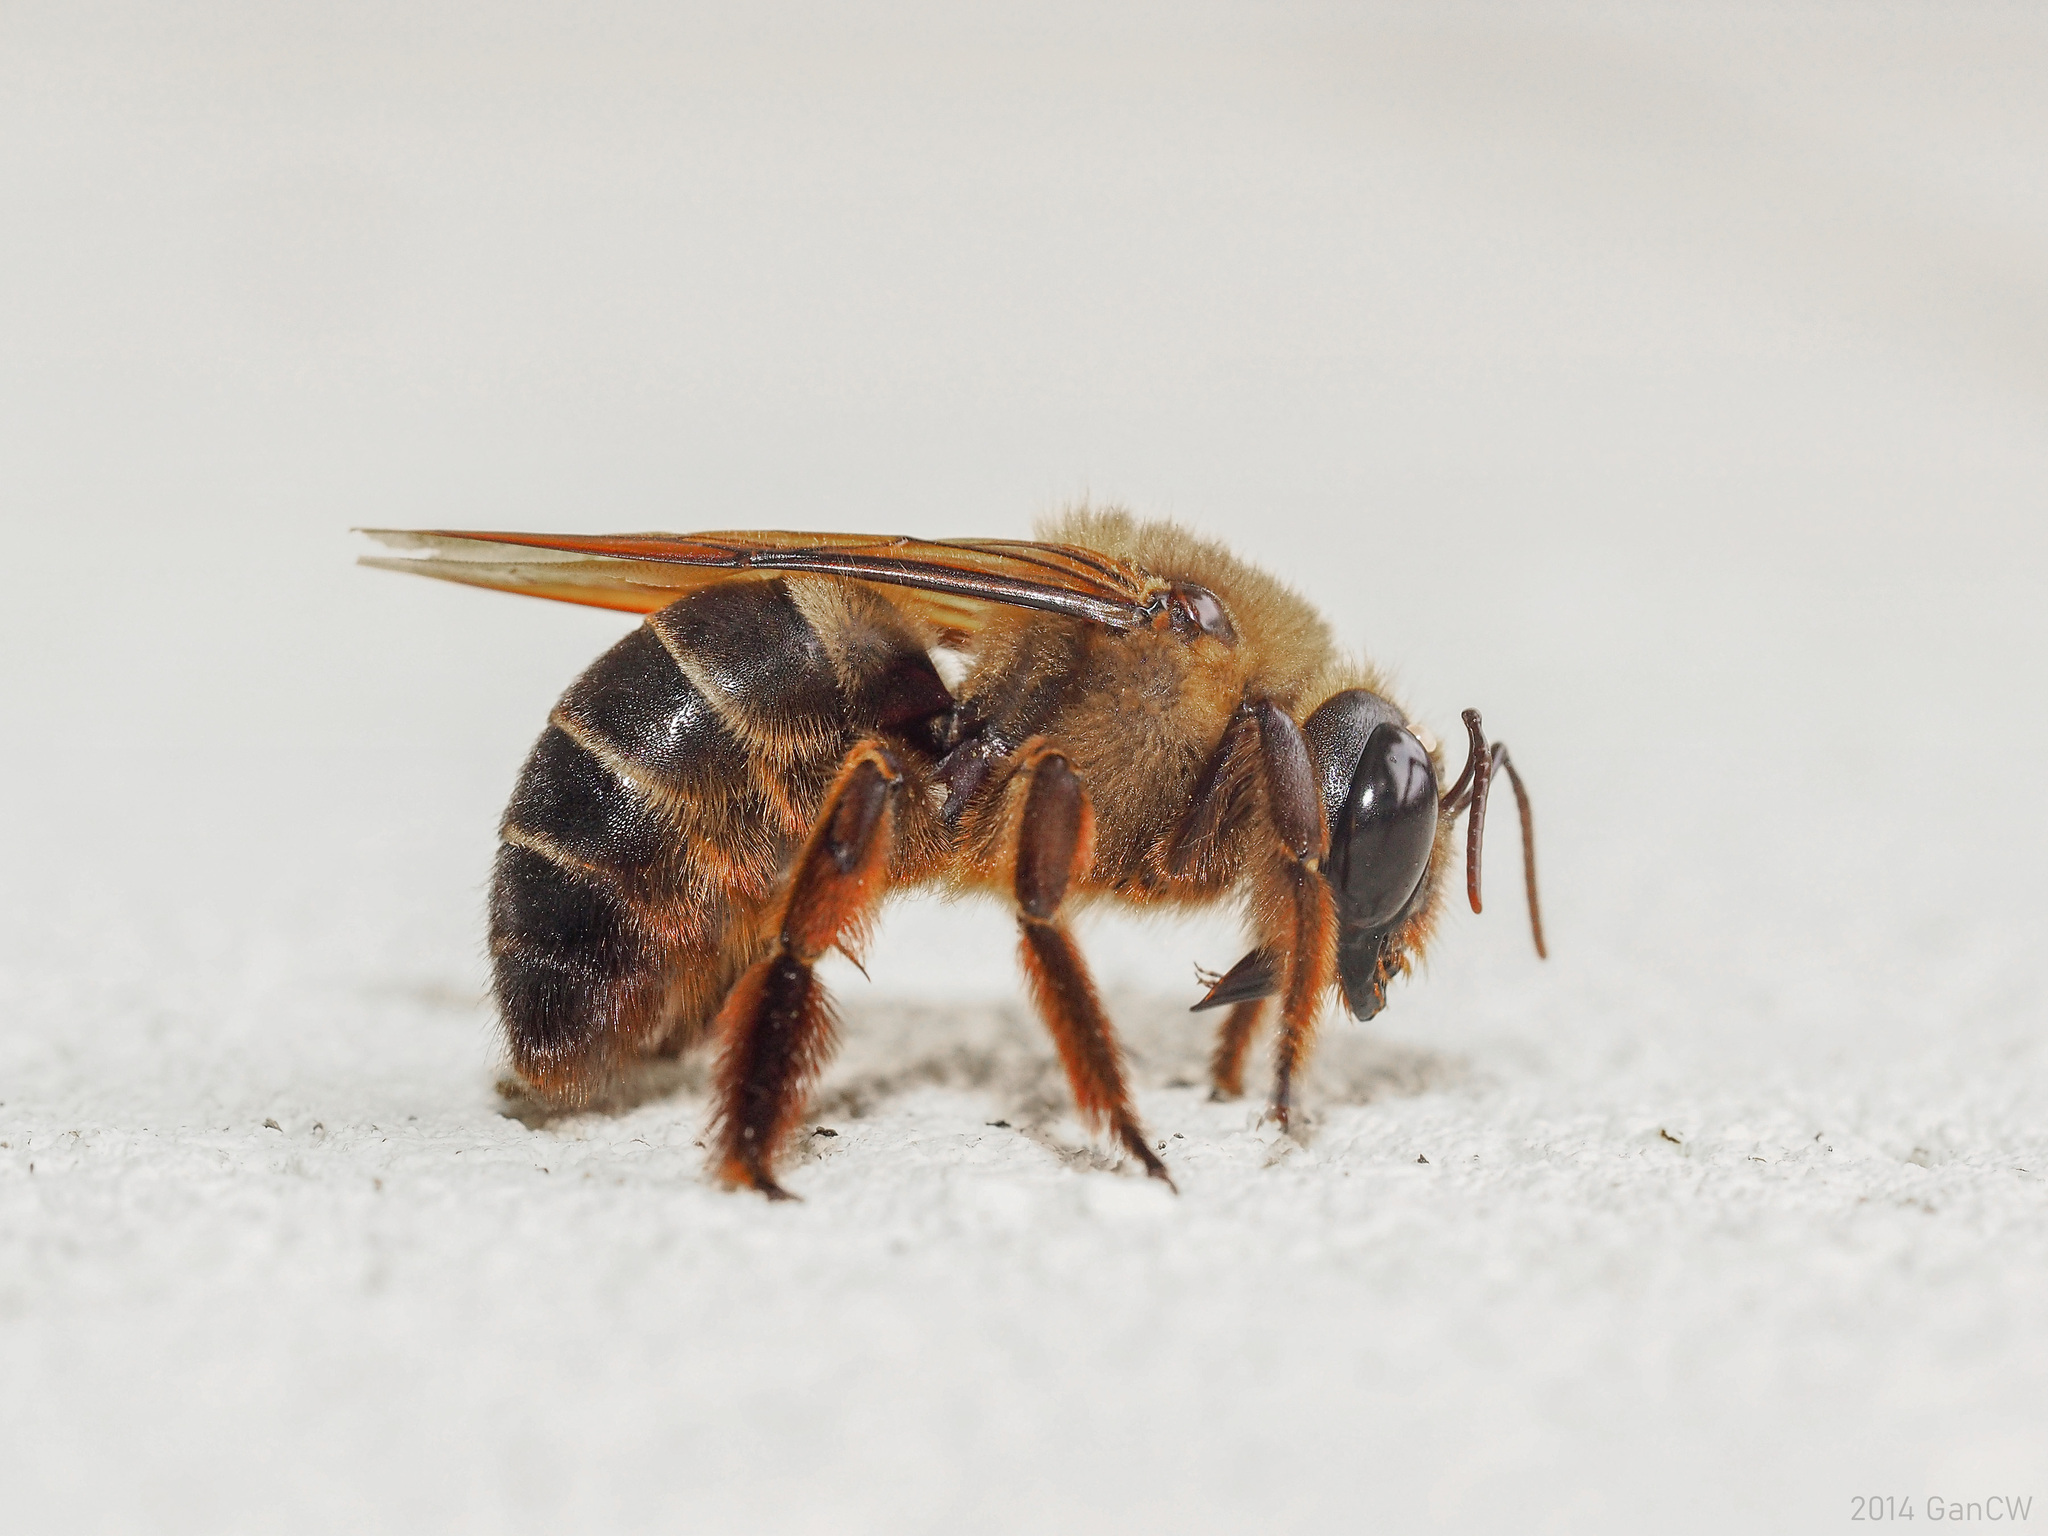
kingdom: Animalia
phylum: Arthropoda
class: Insecta
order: Hymenoptera
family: Apidae
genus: Xylocopa
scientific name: Xylocopa myops
